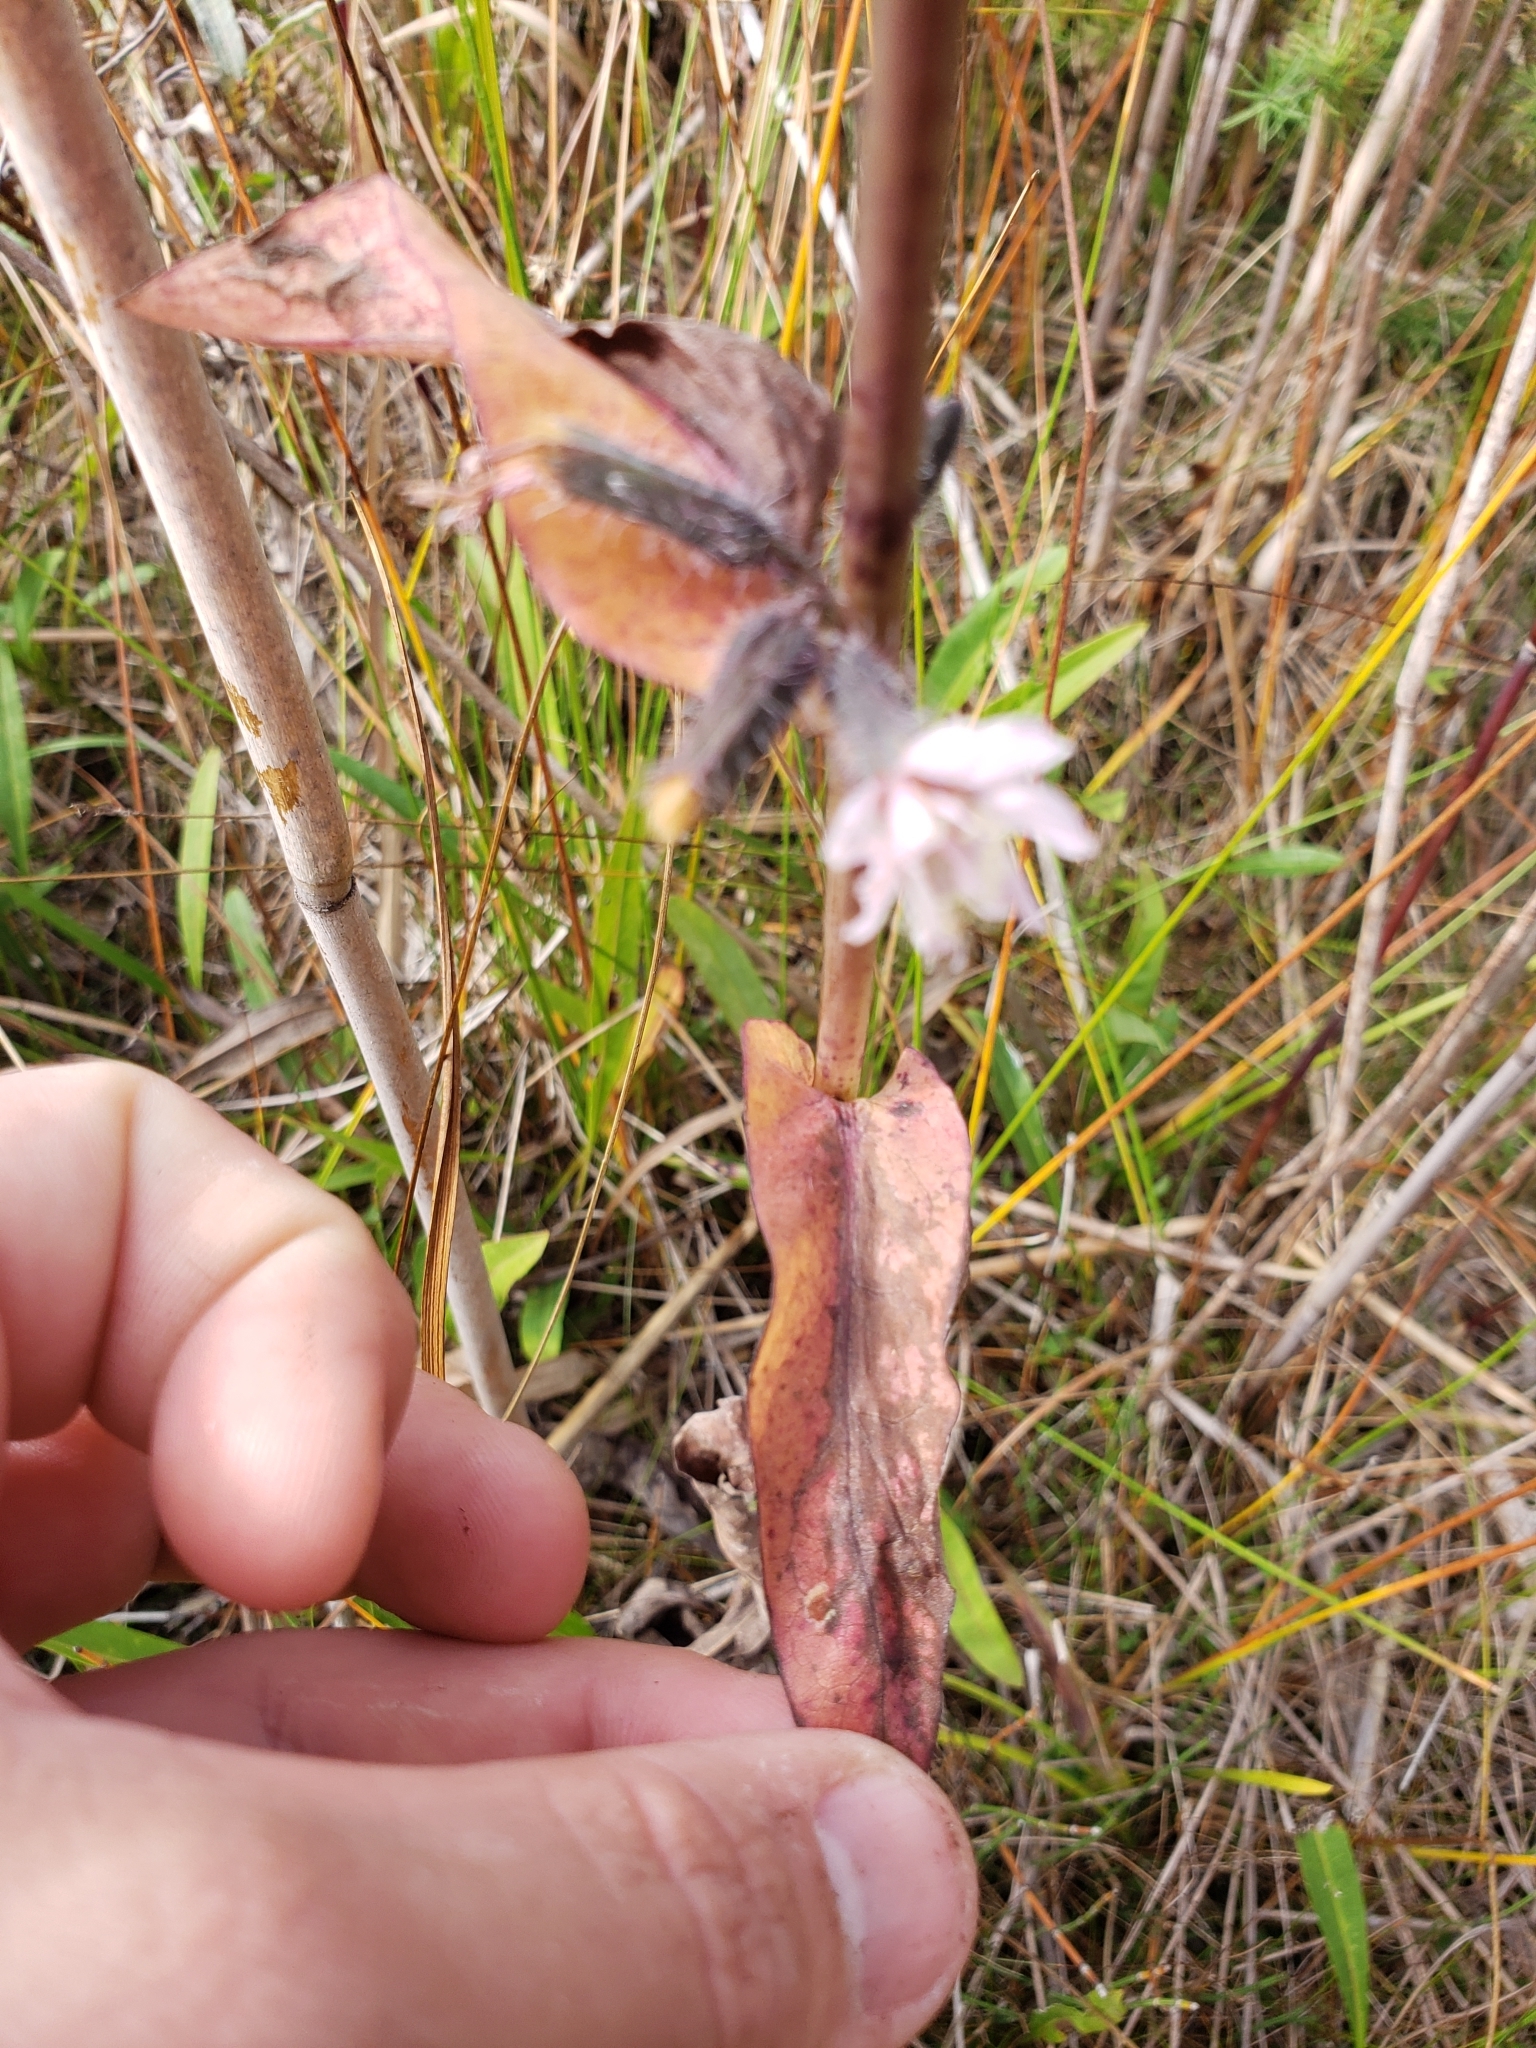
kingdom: Plantae
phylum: Tracheophyta
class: Magnoliopsida
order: Asterales
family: Asteraceae
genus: Nabalus
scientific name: Nabalus racemosus
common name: Glaucous white lettuce
